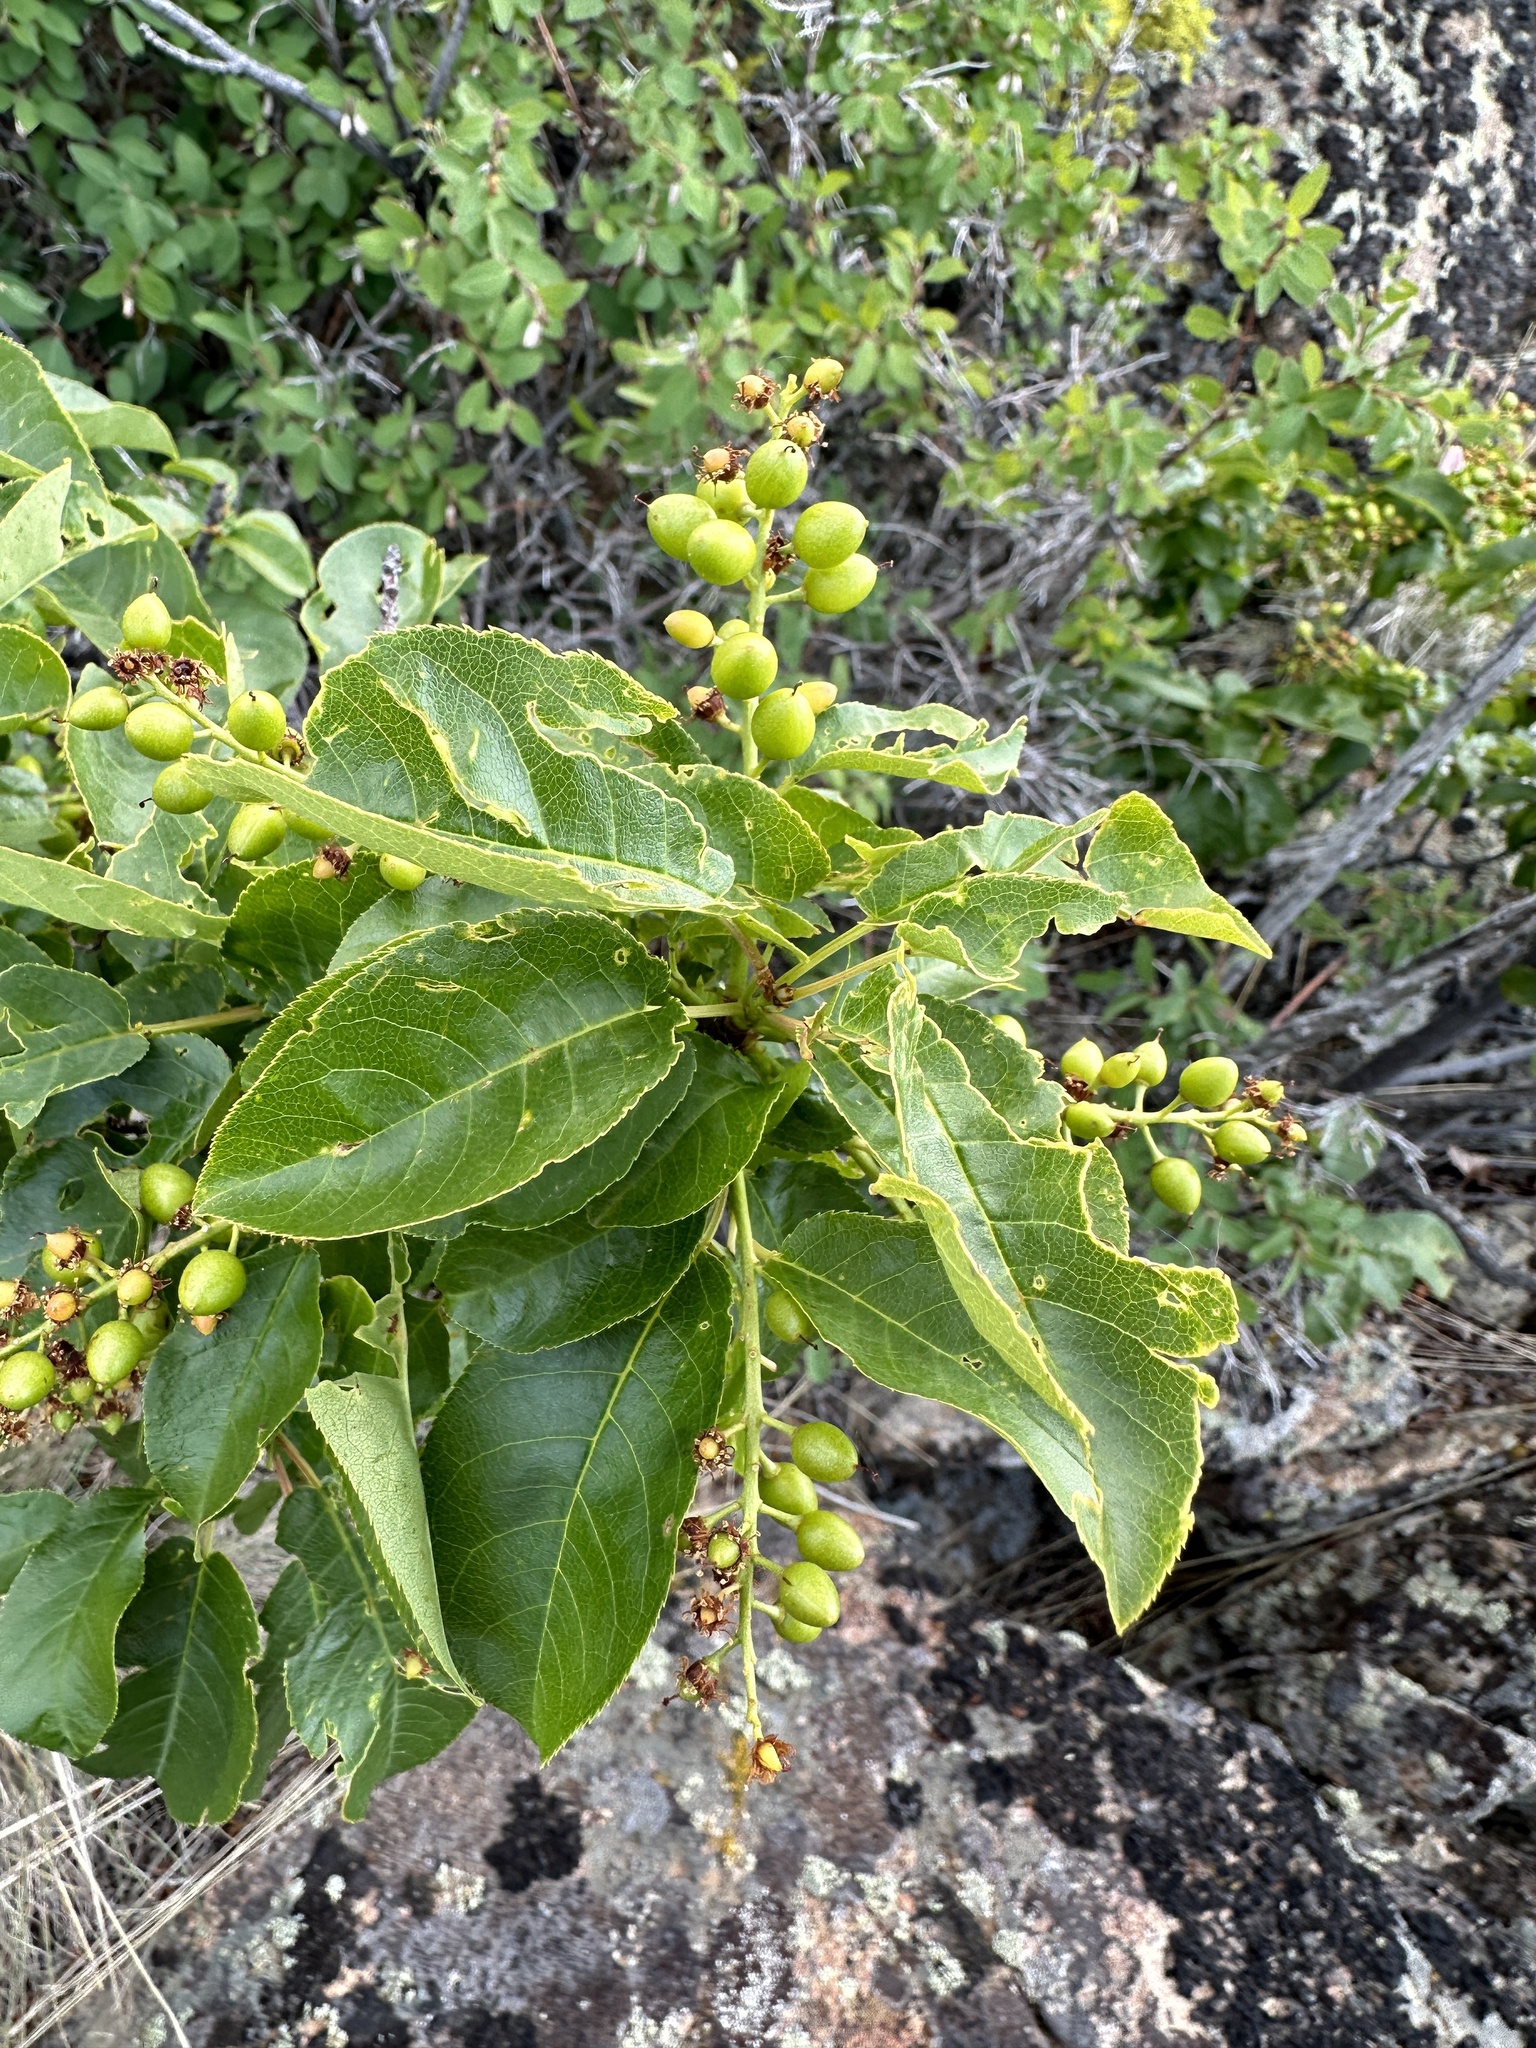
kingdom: Plantae
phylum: Tracheophyta
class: Magnoliopsida
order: Rosales
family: Rosaceae
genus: Prunus
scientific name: Prunus virginiana
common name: Chokecherry
